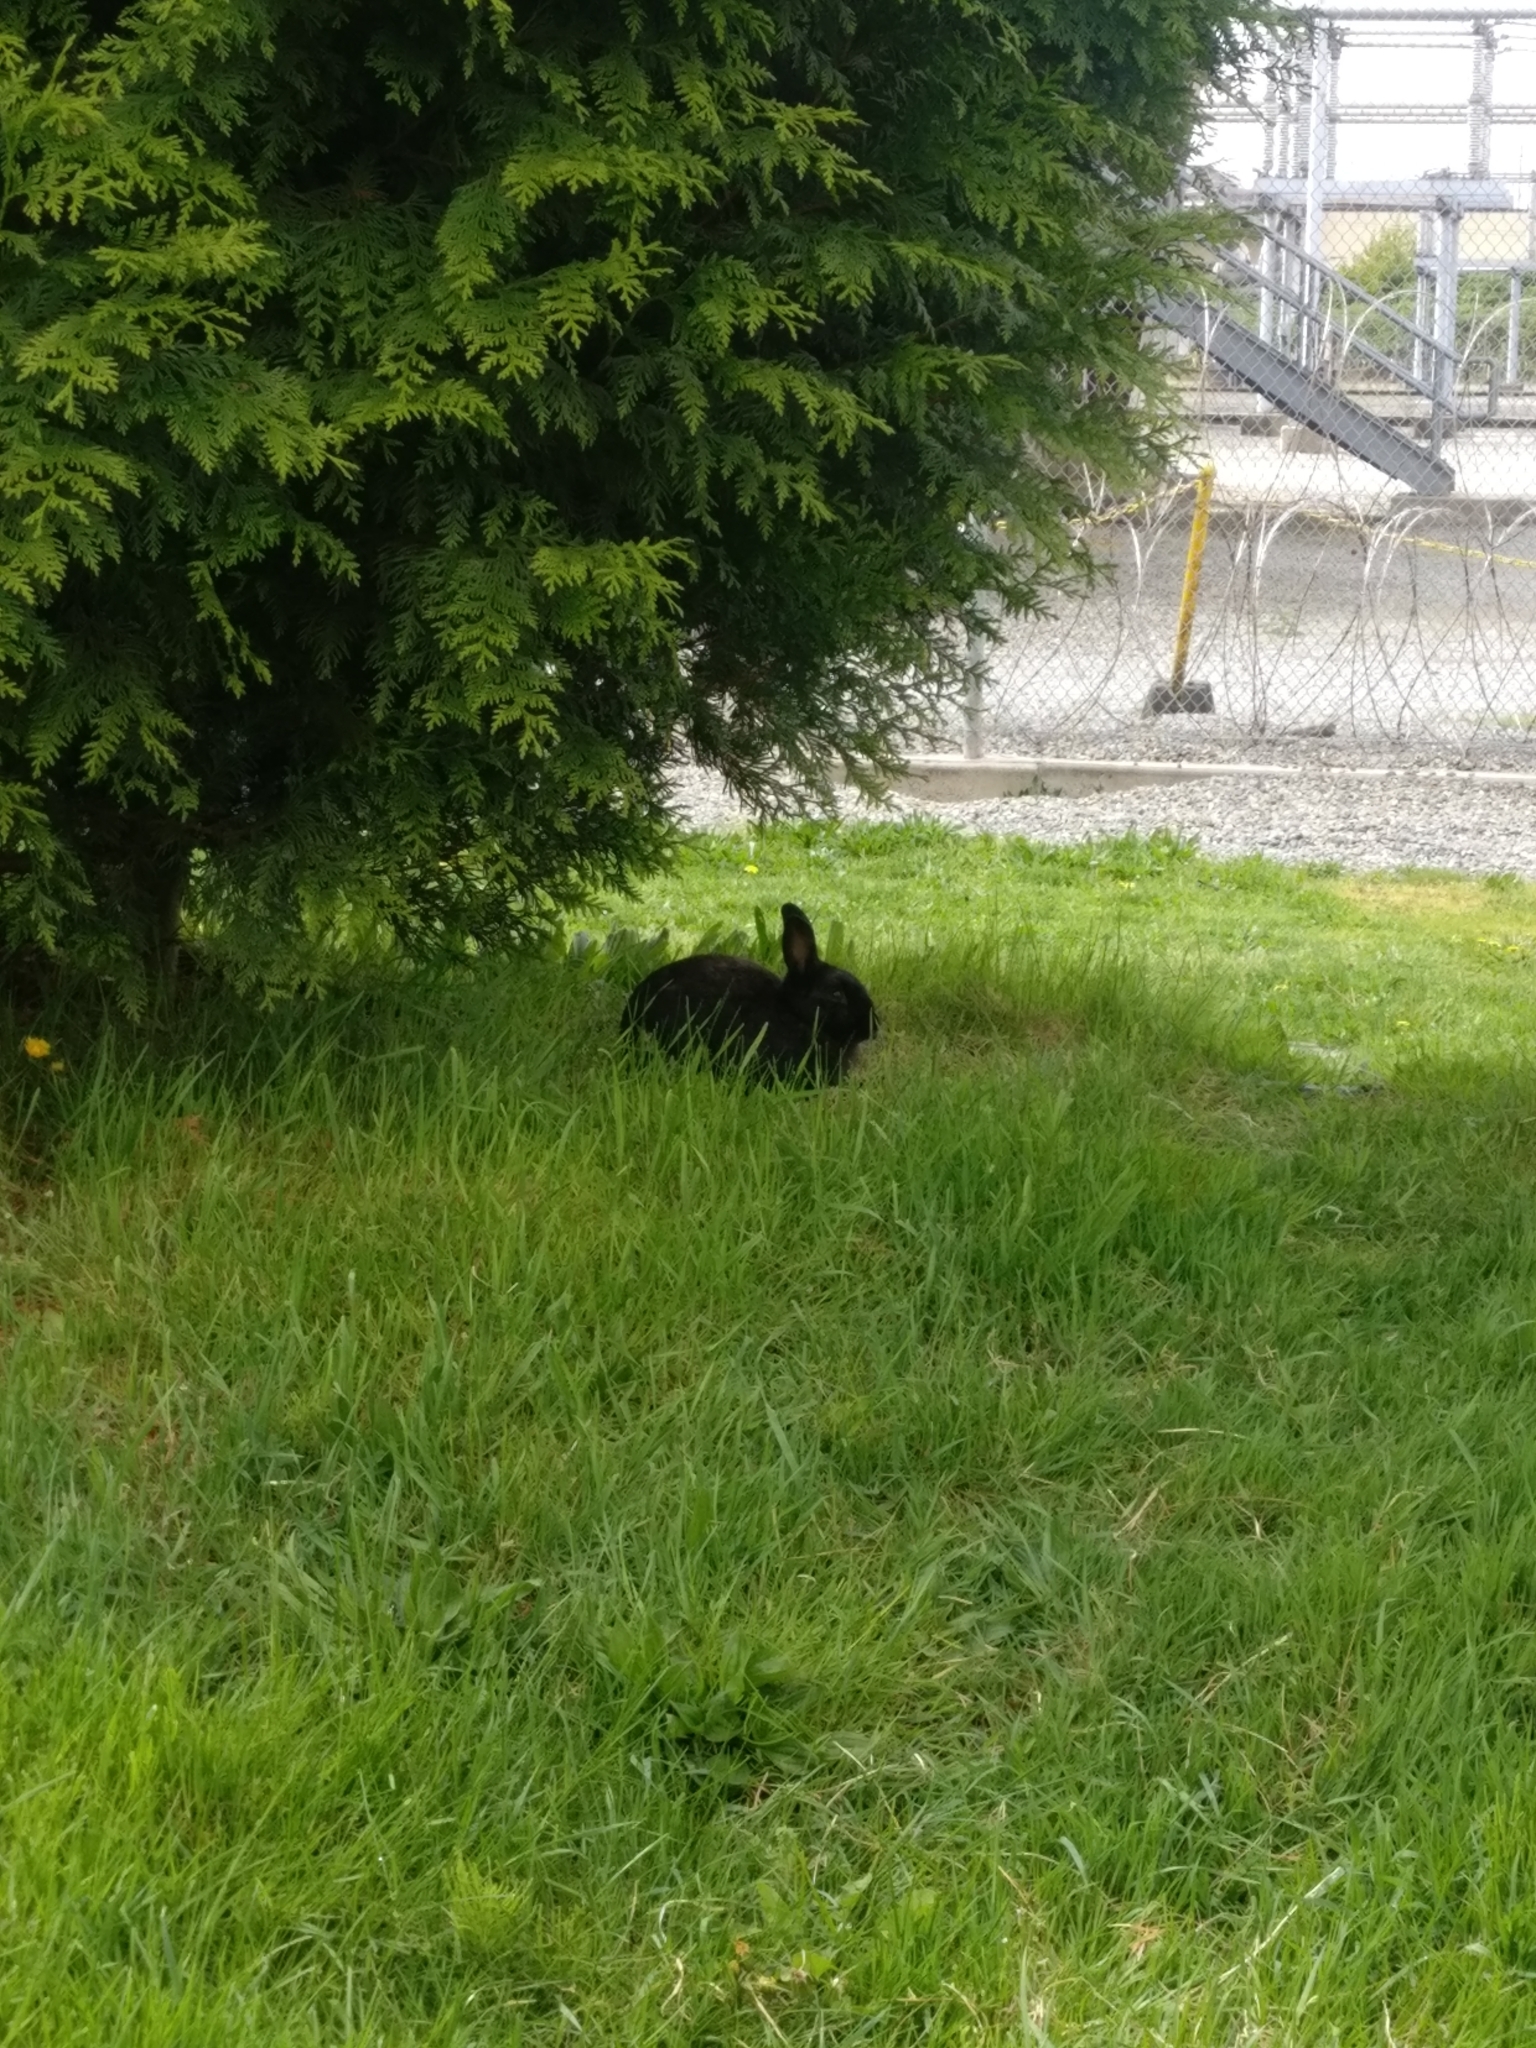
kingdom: Animalia
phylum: Chordata
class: Mammalia
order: Lagomorpha
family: Leporidae
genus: Oryctolagus
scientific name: Oryctolagus cuniculus
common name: European rabbit
